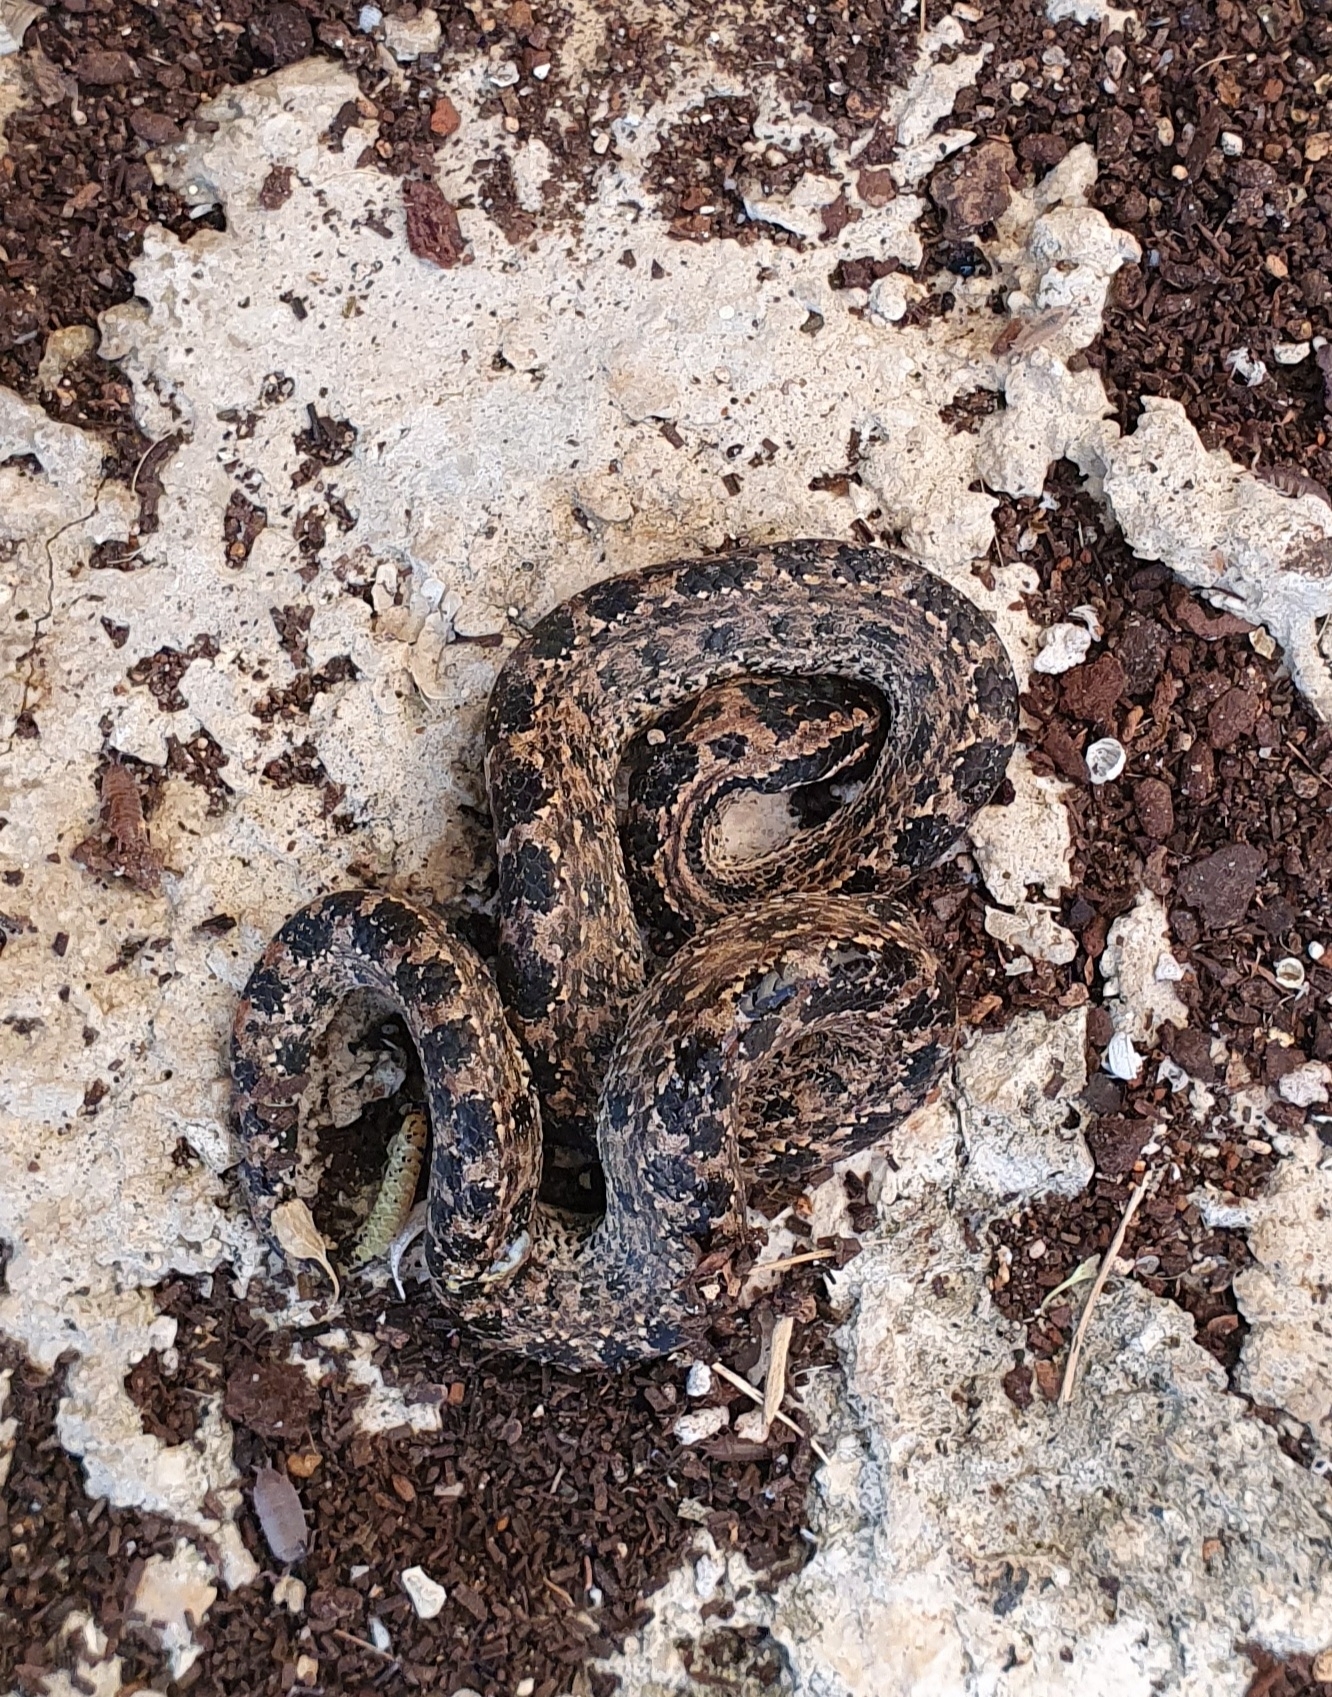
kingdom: Animalia
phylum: Chordata
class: Squamata
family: Tropidophiidae
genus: Tropidophis
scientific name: Tropidophis caymanensis
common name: Cayman islands dwarf boa
